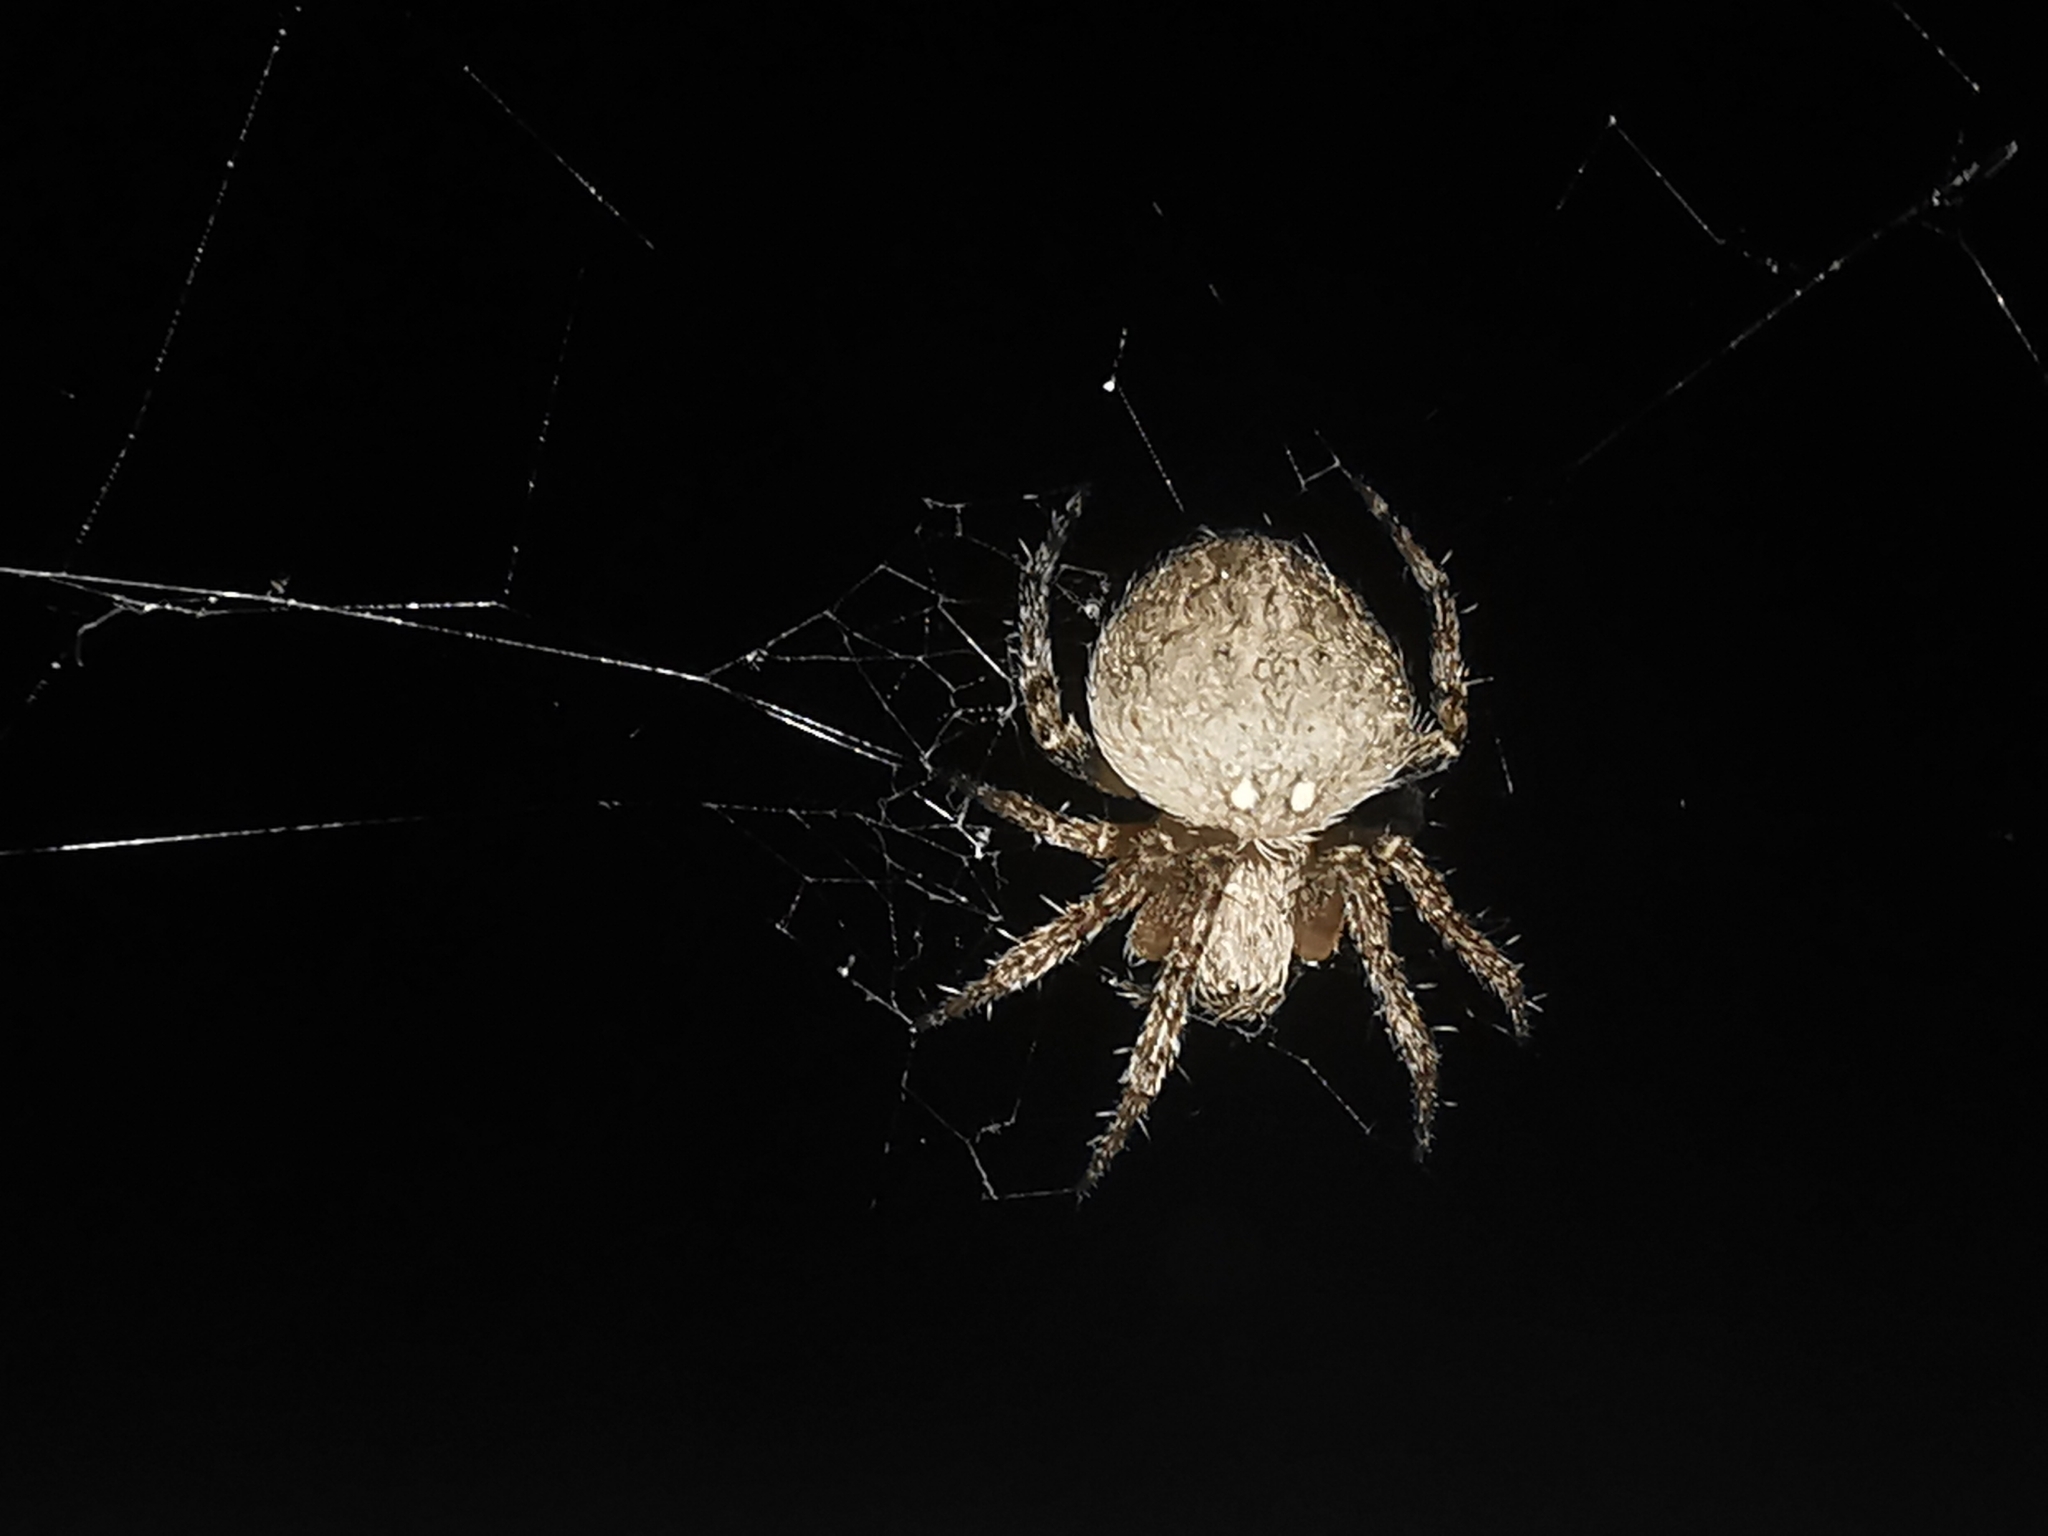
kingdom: Animalia
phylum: Arthropoda
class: Arachnida
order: Araneae
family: Araneidae
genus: Neoscona
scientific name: Neoscona subfusca
